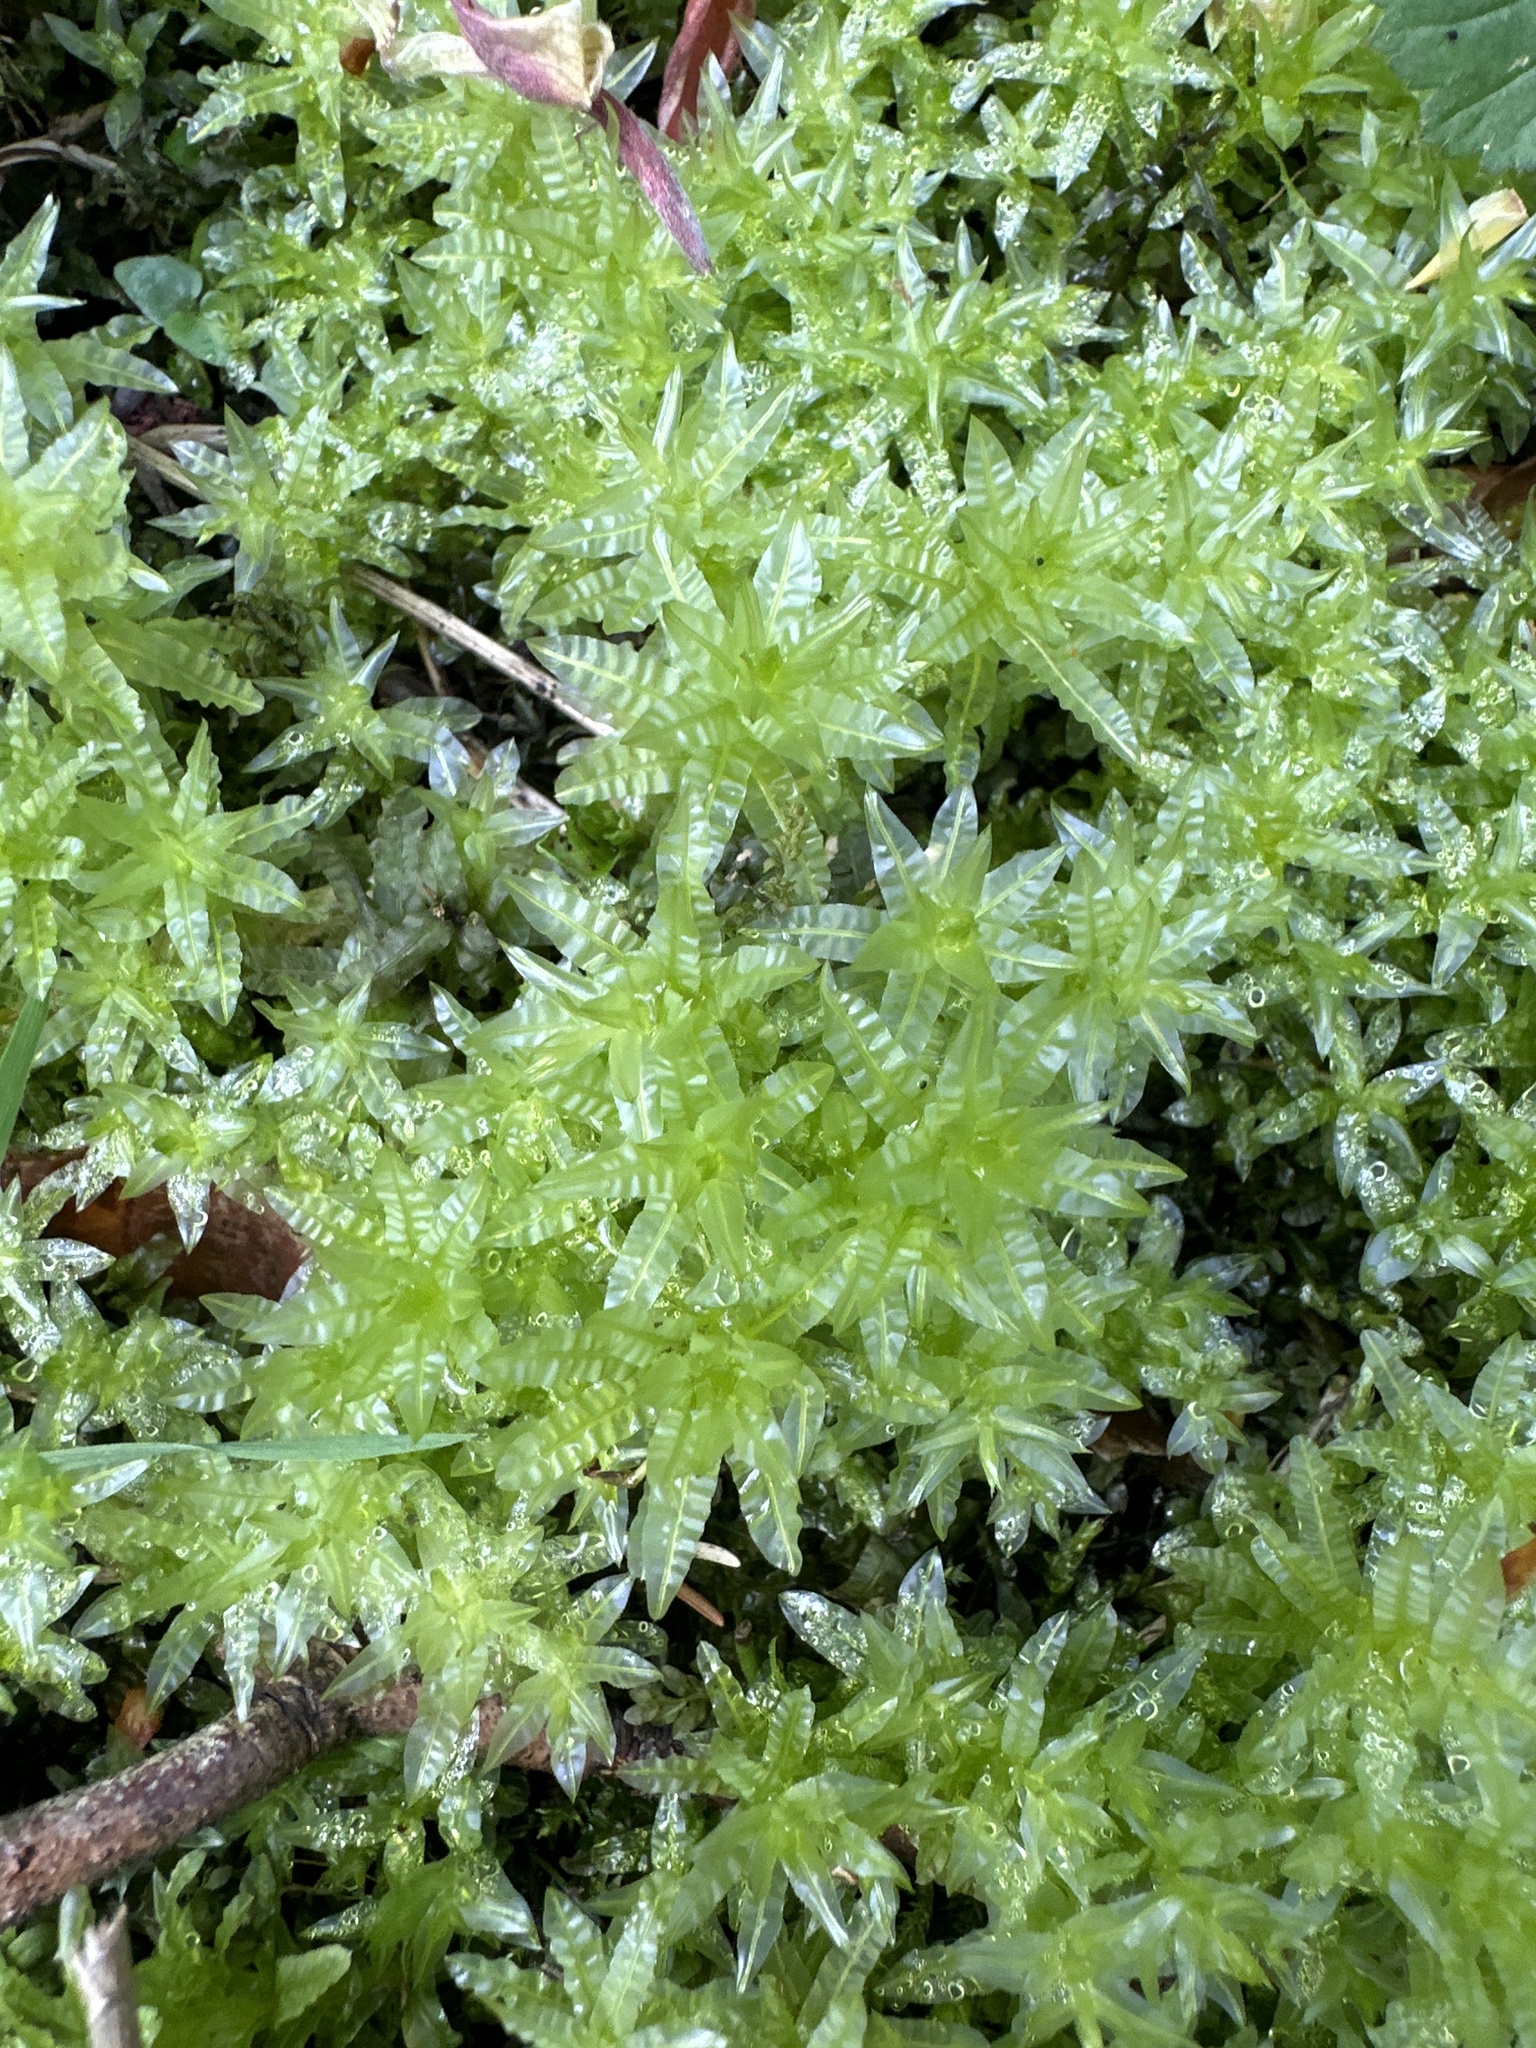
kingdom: Plantae
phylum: Bryophyta
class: Bryopsida
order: Bryales
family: Mniaceae
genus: Plagiomnium
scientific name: Plagiomnium undulatum
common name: Hart's-tongue thyme-moss
